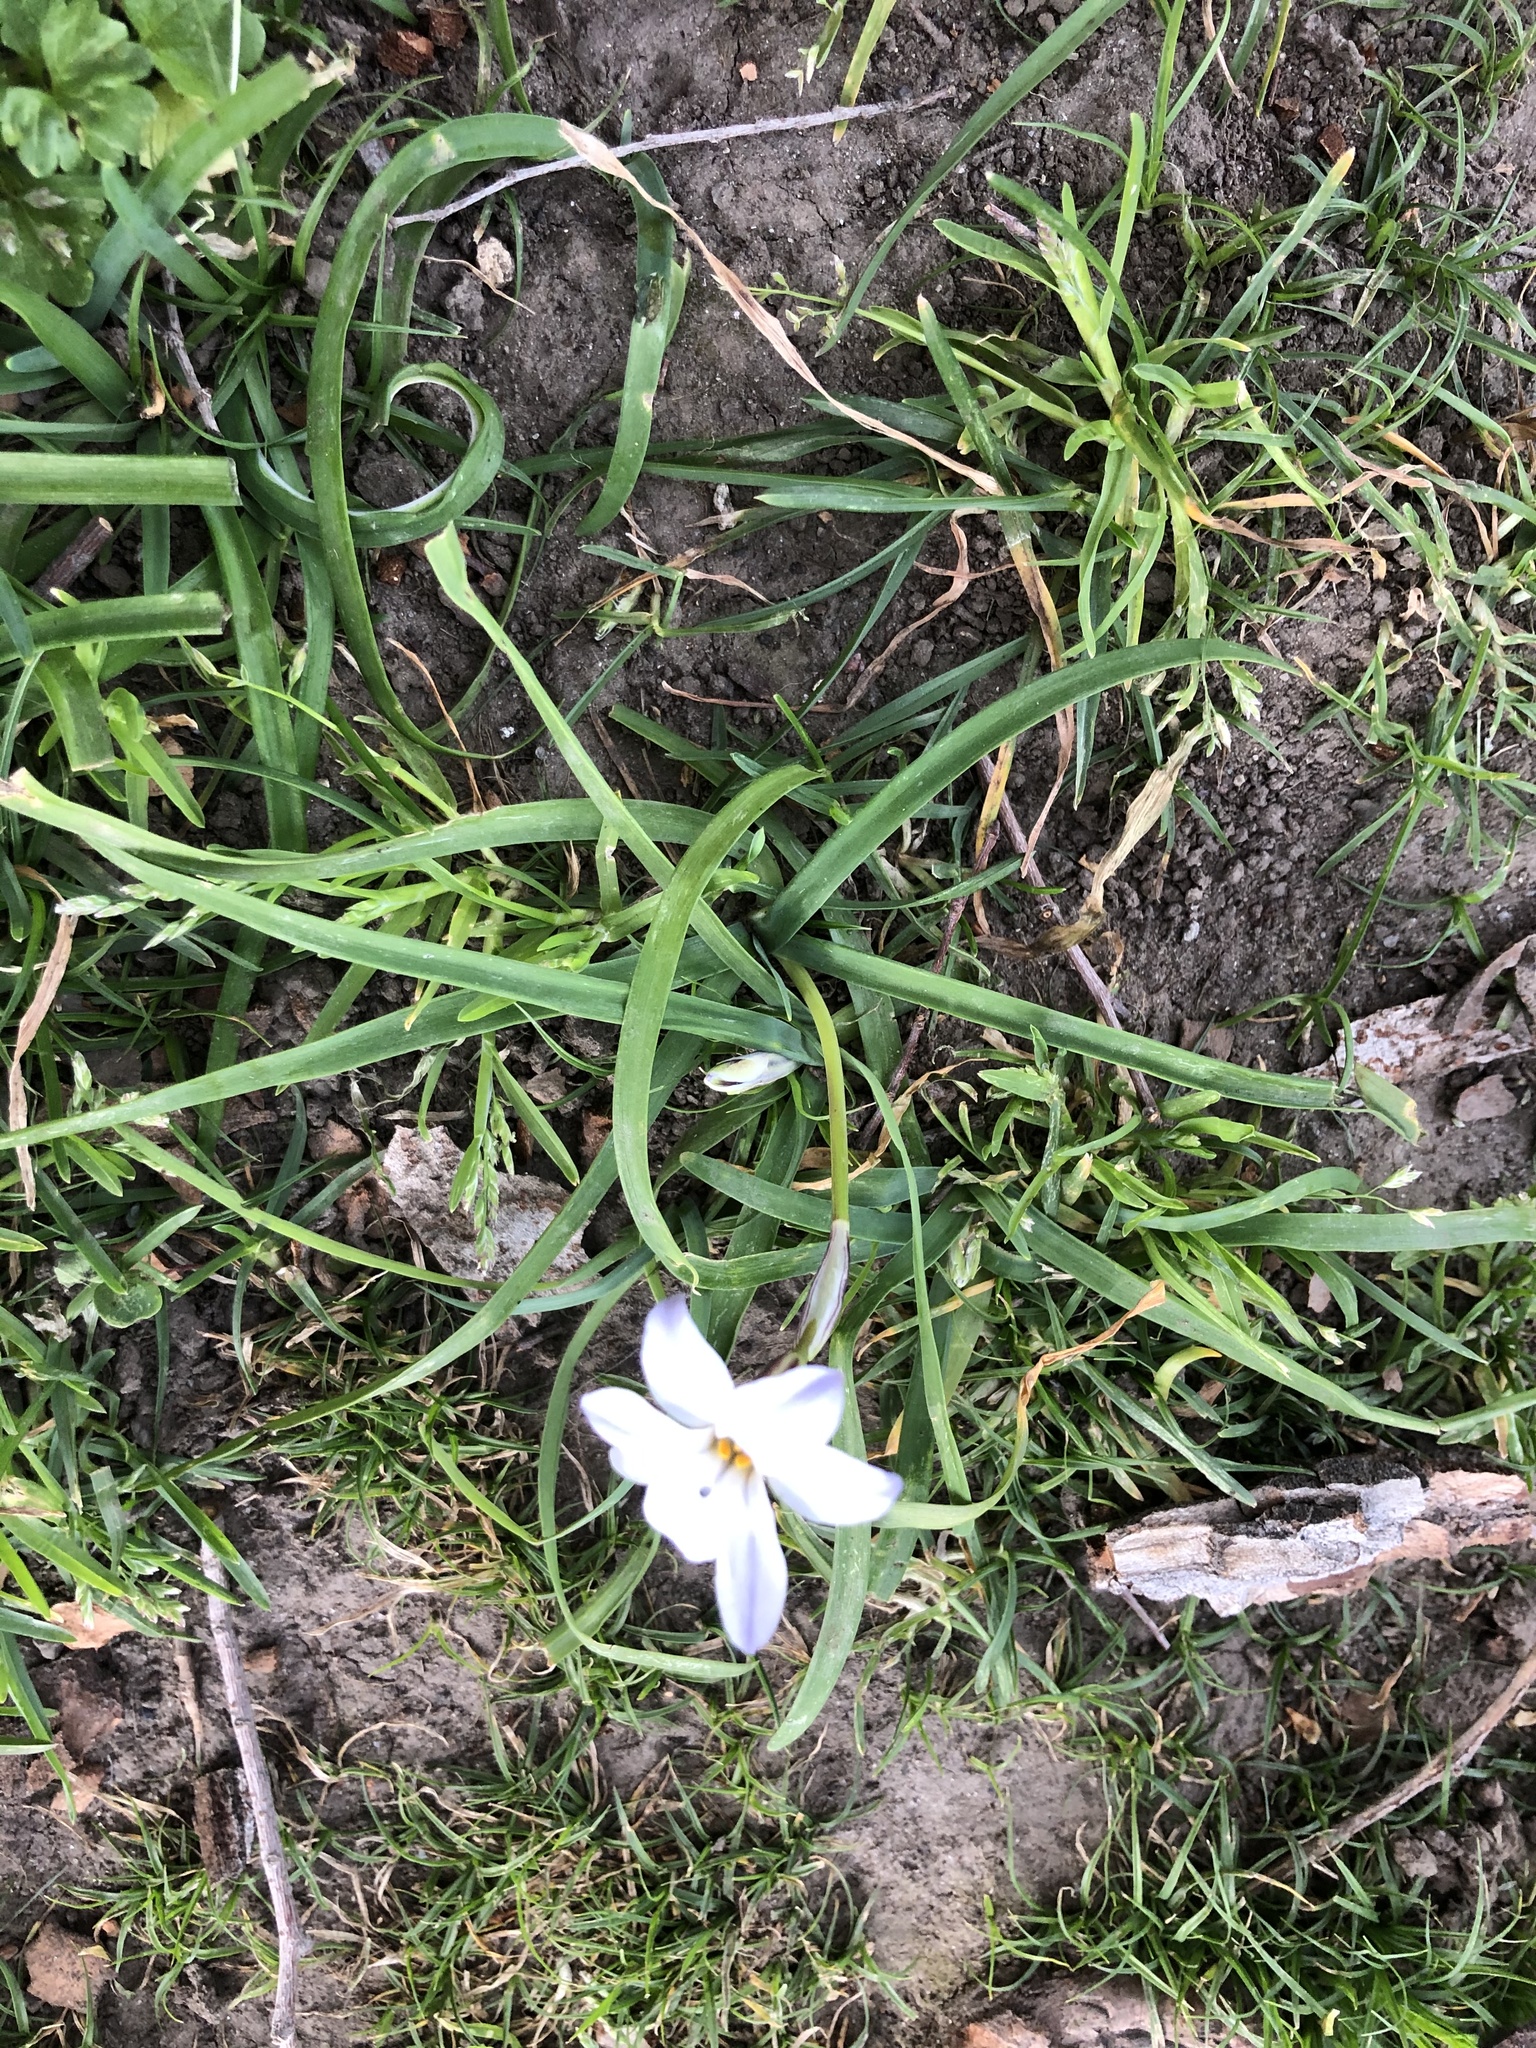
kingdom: Plantae
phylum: Tracheophyta
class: Liliopsida
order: Asparagales
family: Amaryllidaceae
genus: Ipheion
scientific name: Ipheion uniflorum
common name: Spring starflower
